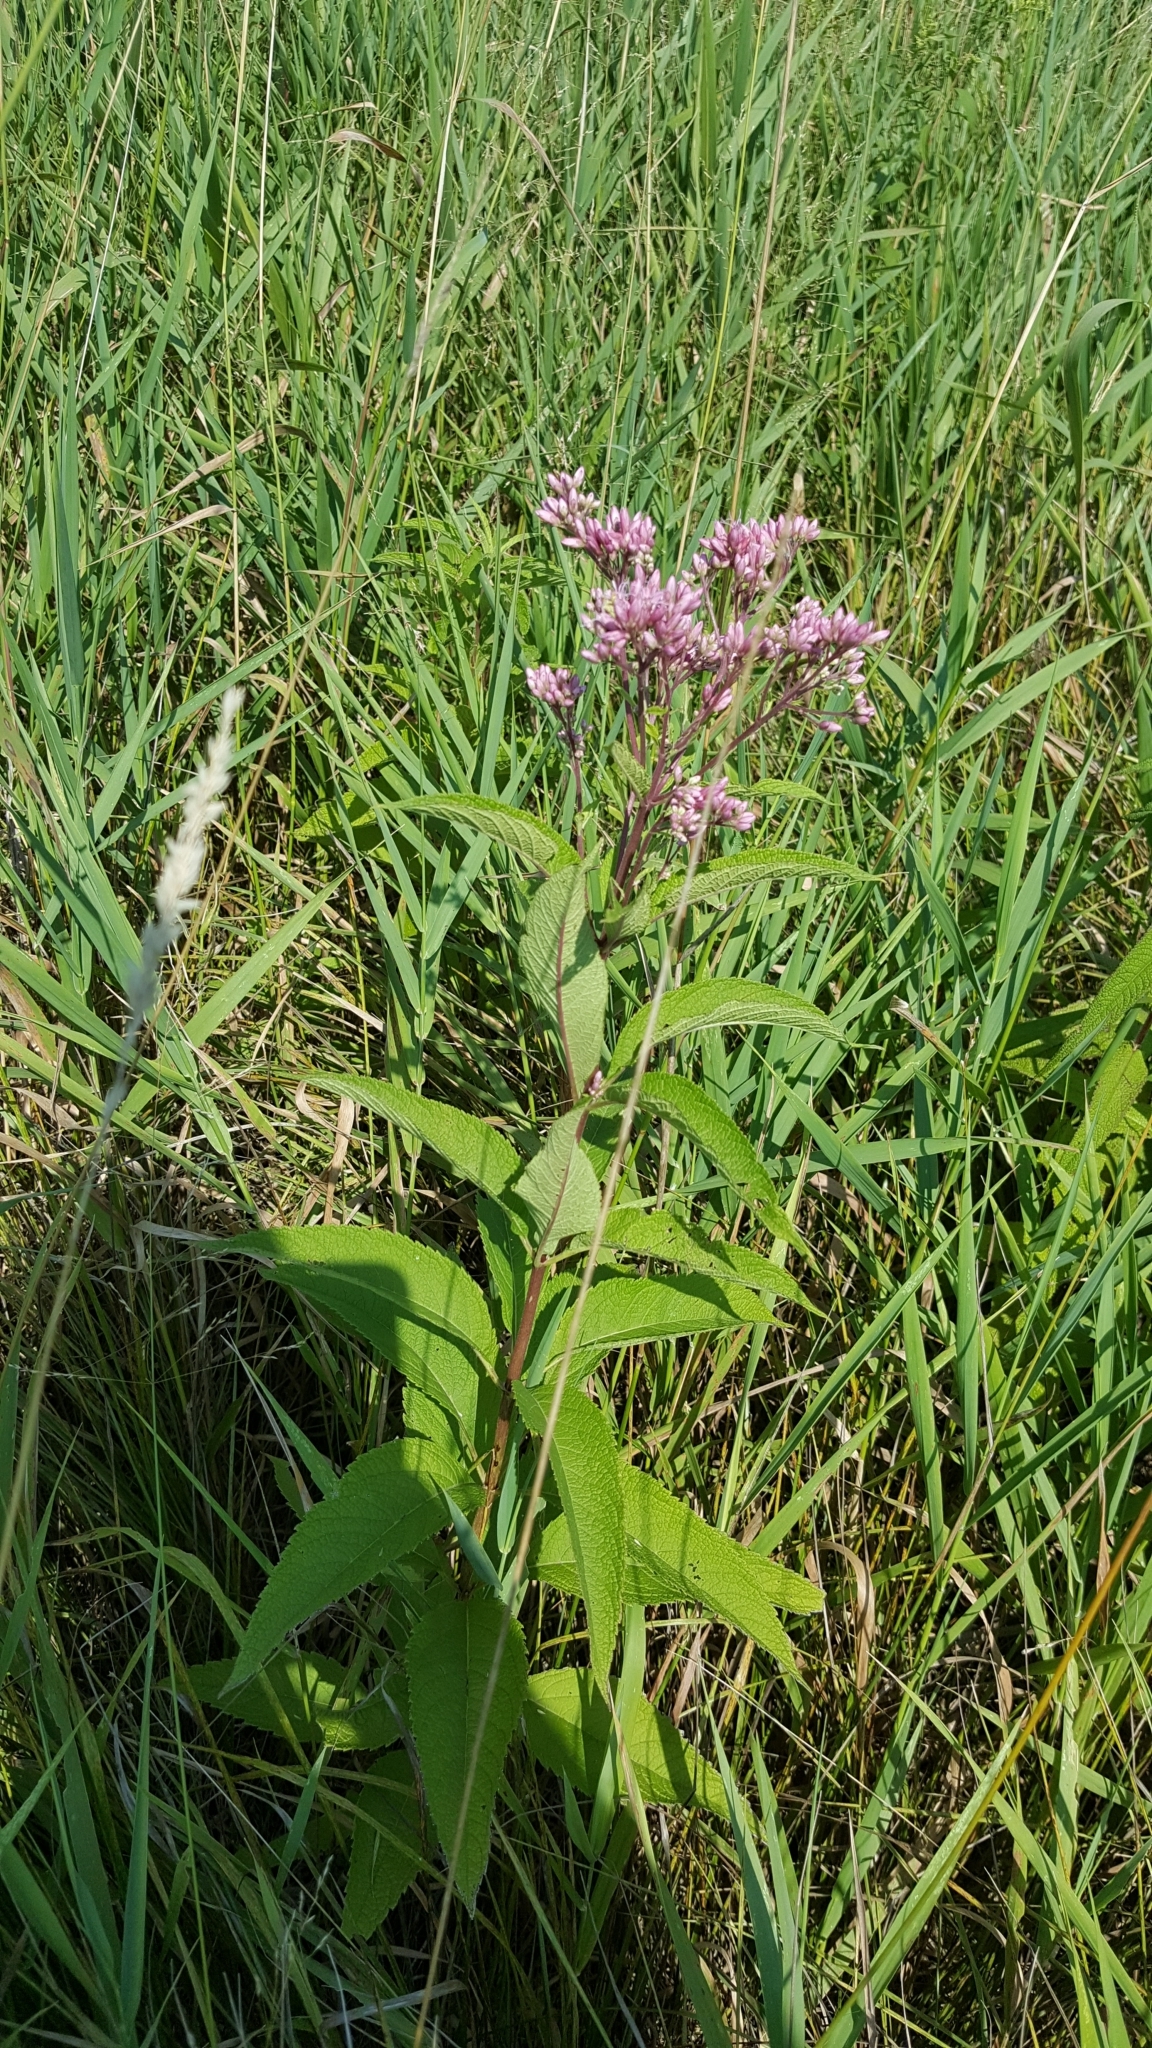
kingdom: Plantae
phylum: Tracheophyta
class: Magnoliopsida
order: Asterales
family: Asteraceae
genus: Eutrochium
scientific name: Eutrochium maculatum
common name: Spotted joe pye weed
